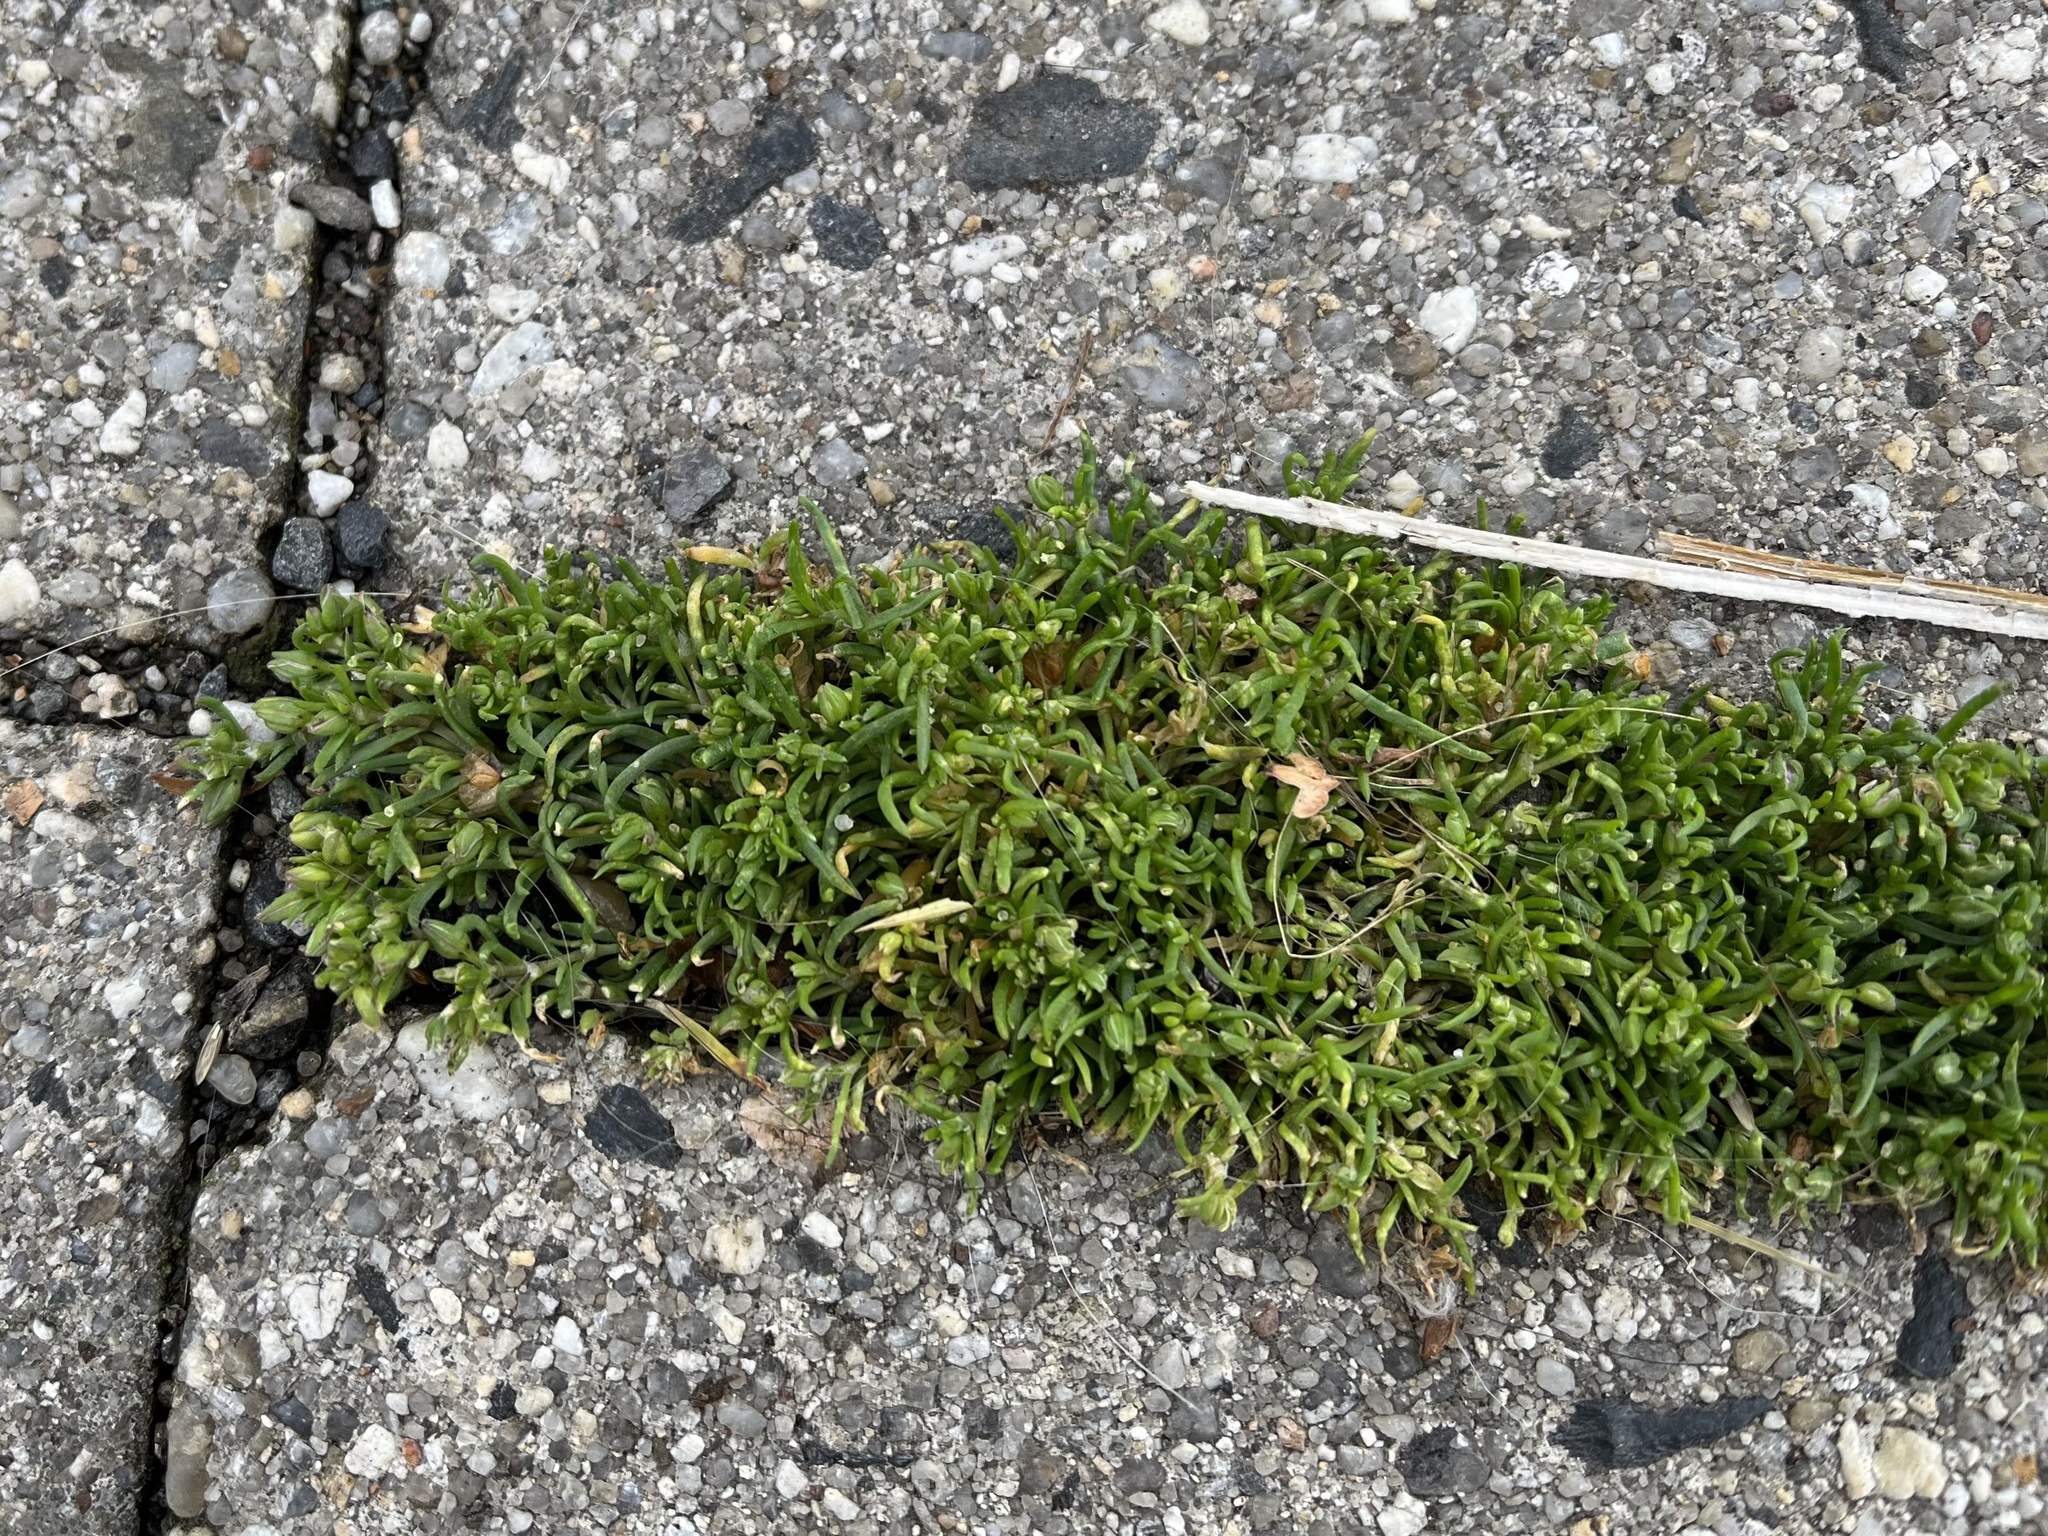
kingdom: Plantae
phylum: Tracheophyta
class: Magnoliopsida
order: Caryophyllales
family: Caryophyllaceae
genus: Sagina
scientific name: Sagina procumbens
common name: Procumbent pearlwort
